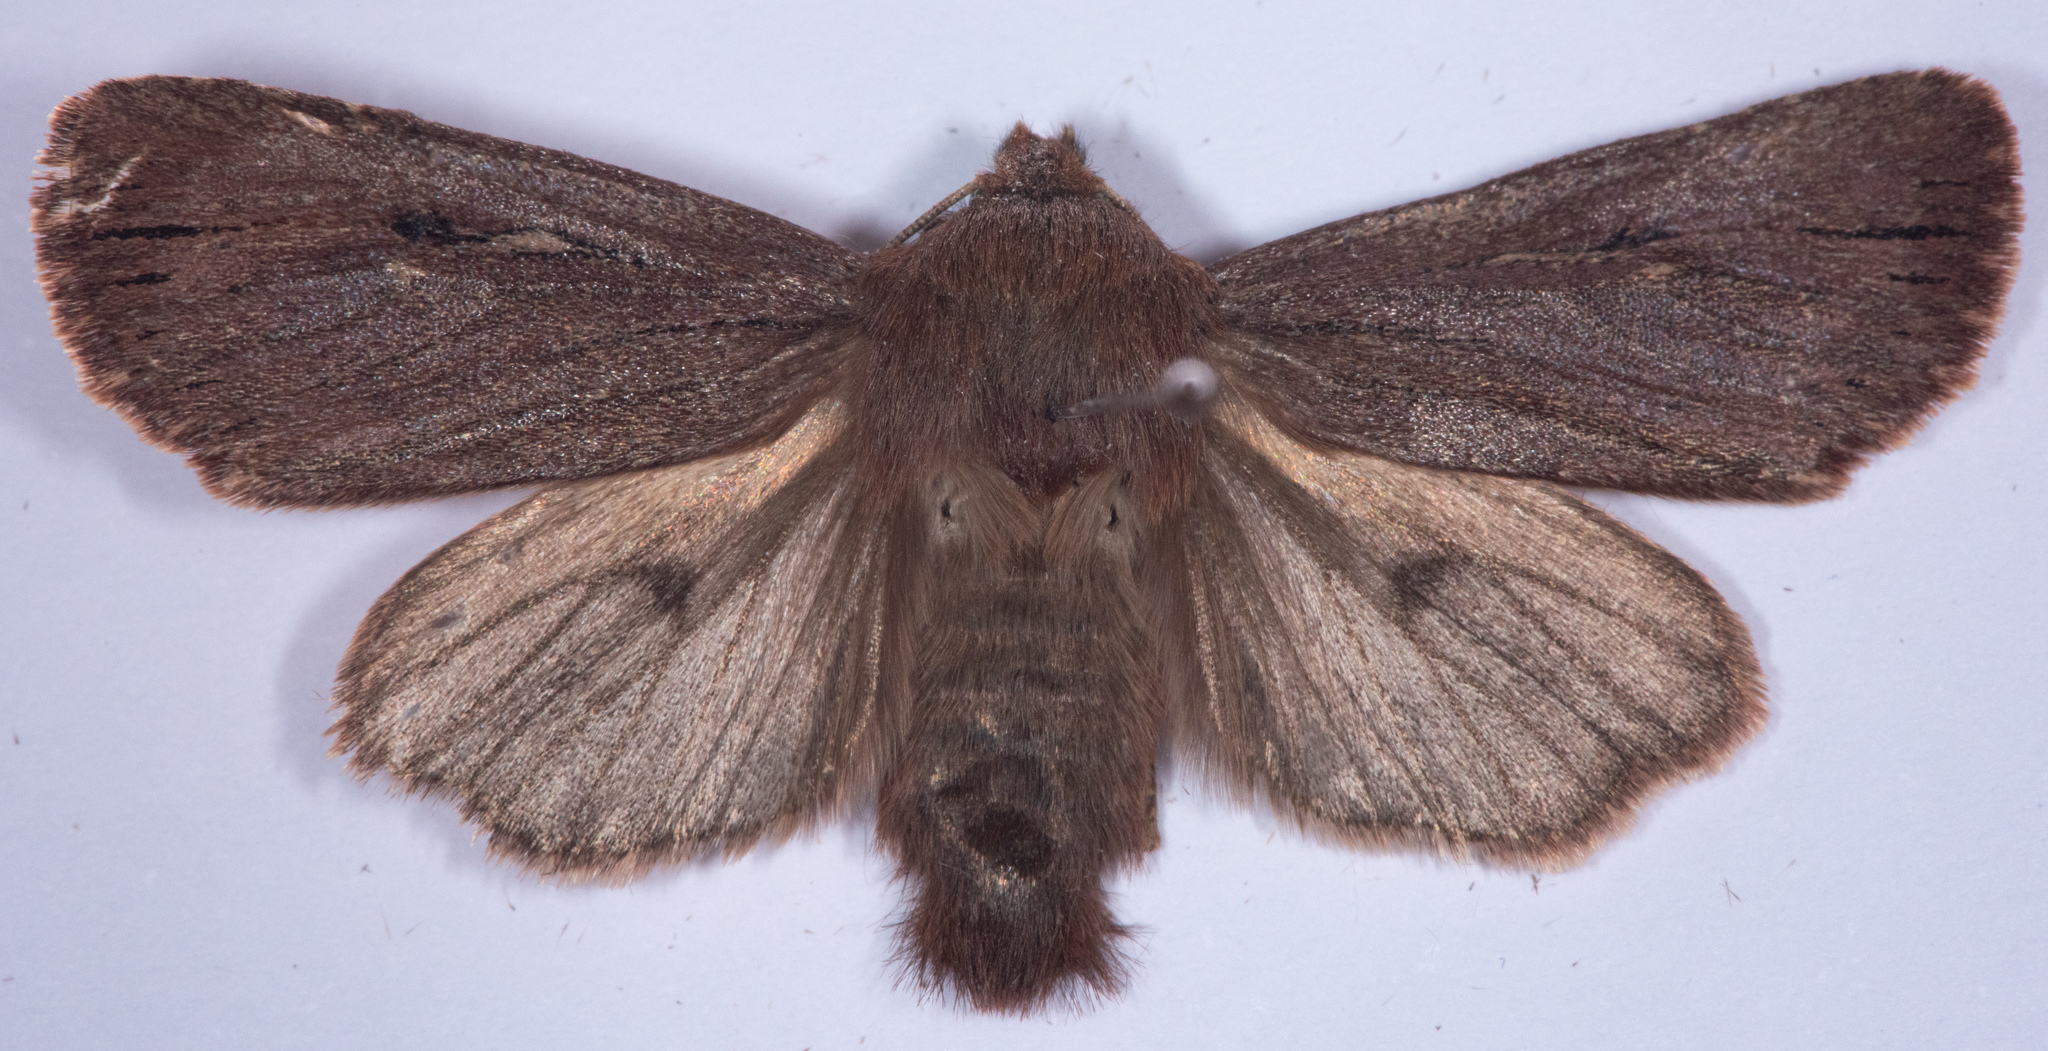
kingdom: Animalia
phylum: Arthropoda
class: Insecta
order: Lepidoptera
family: Noctuidae
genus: Ufeus
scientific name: Ufeus satyricus
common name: Brown satyr moth
